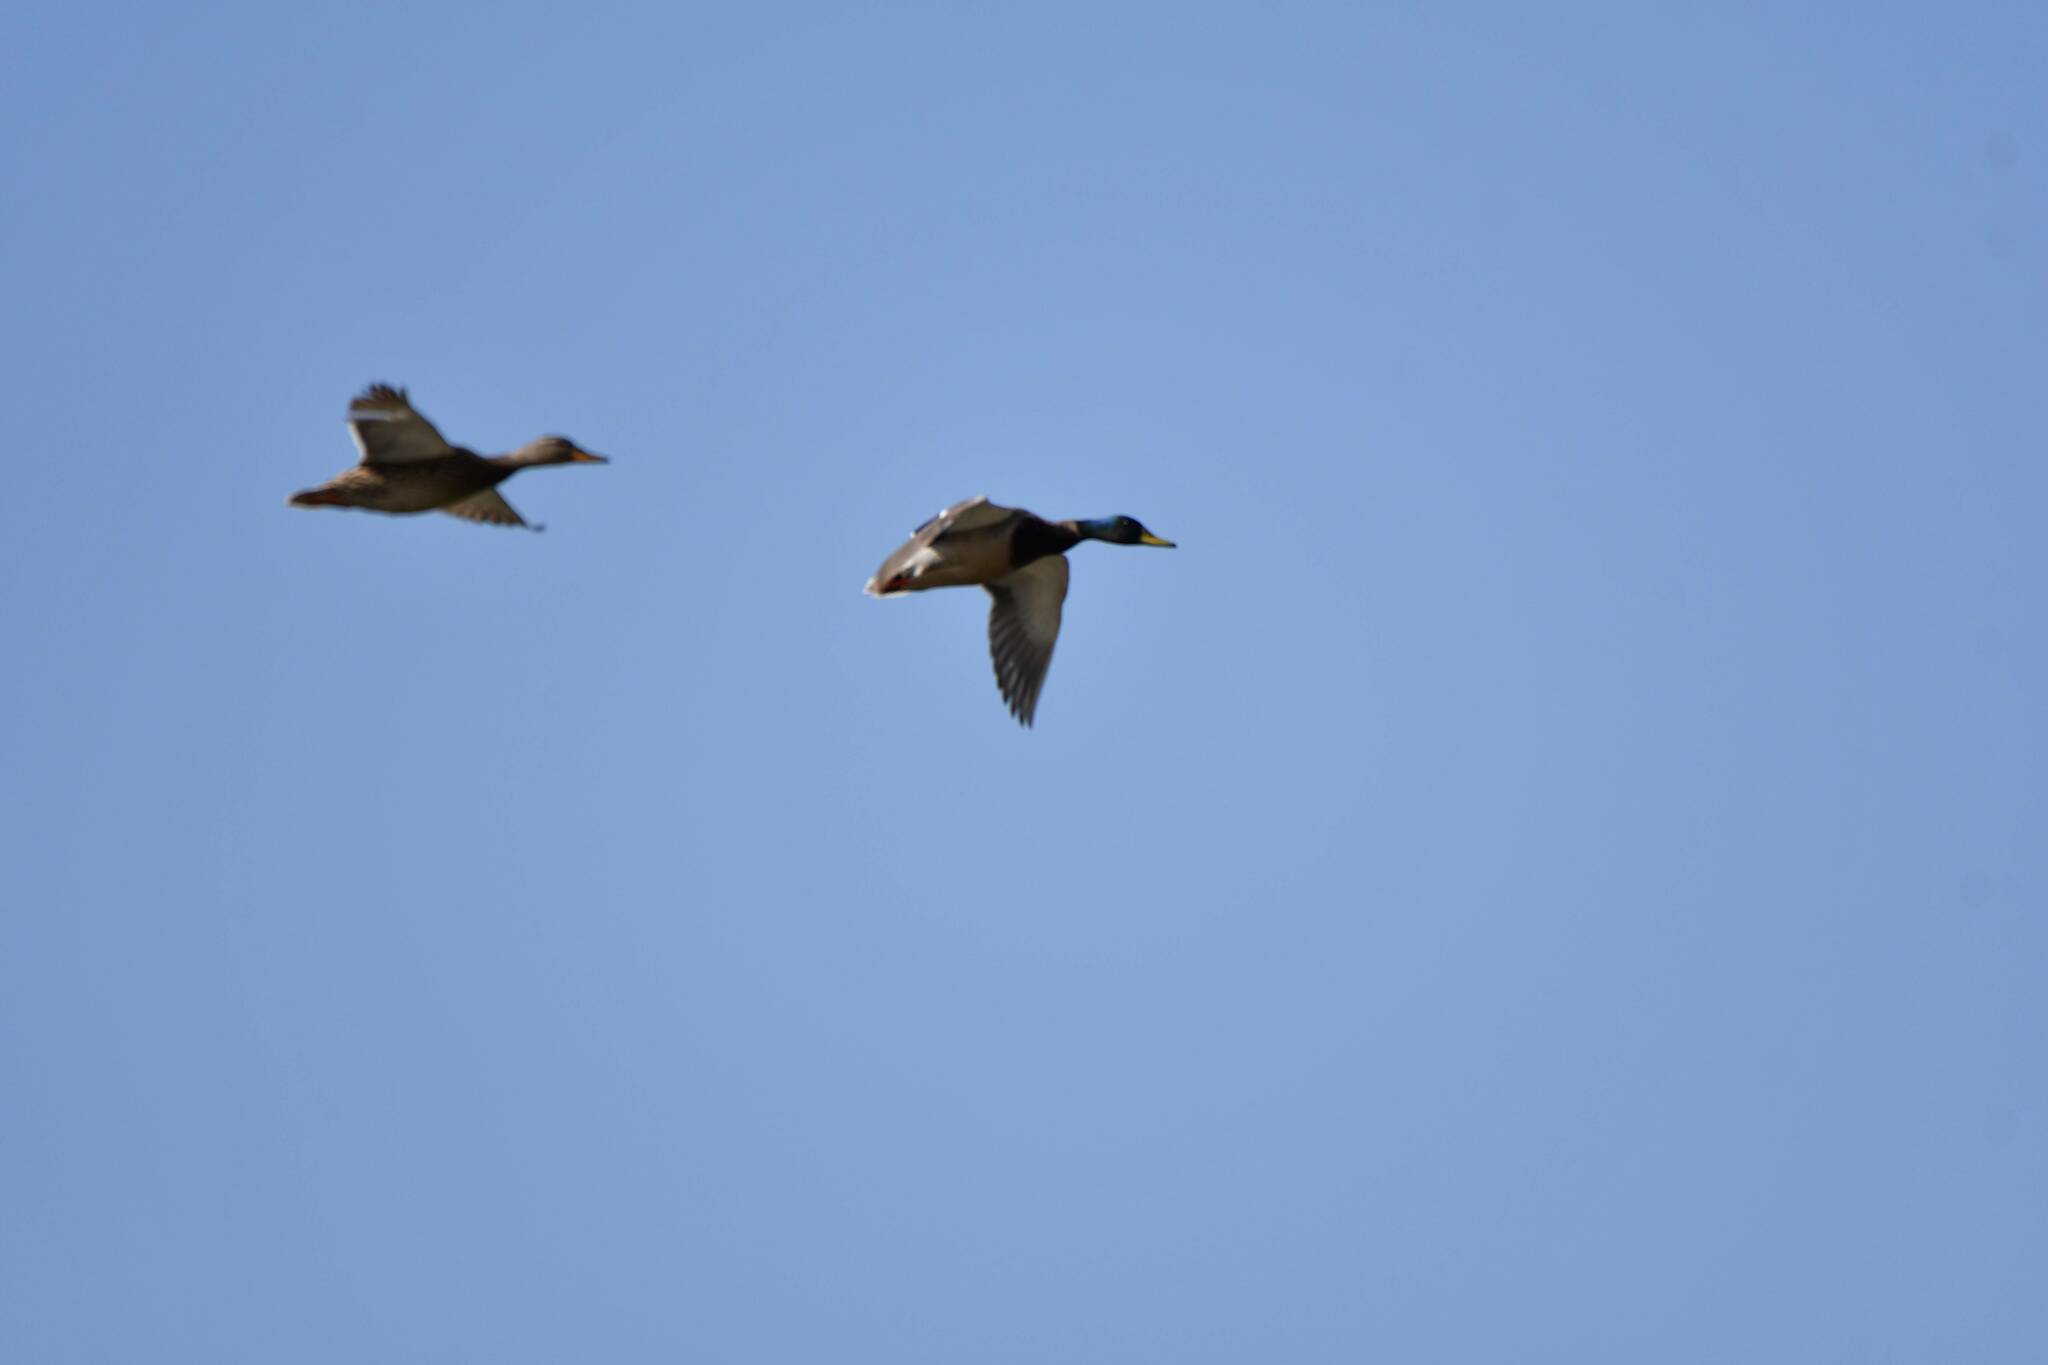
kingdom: Animalia
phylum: Chordata
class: Aves
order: Anseriformes
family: Anatidae
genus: Anas
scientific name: Anas platyrhynchos
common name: Mallard
